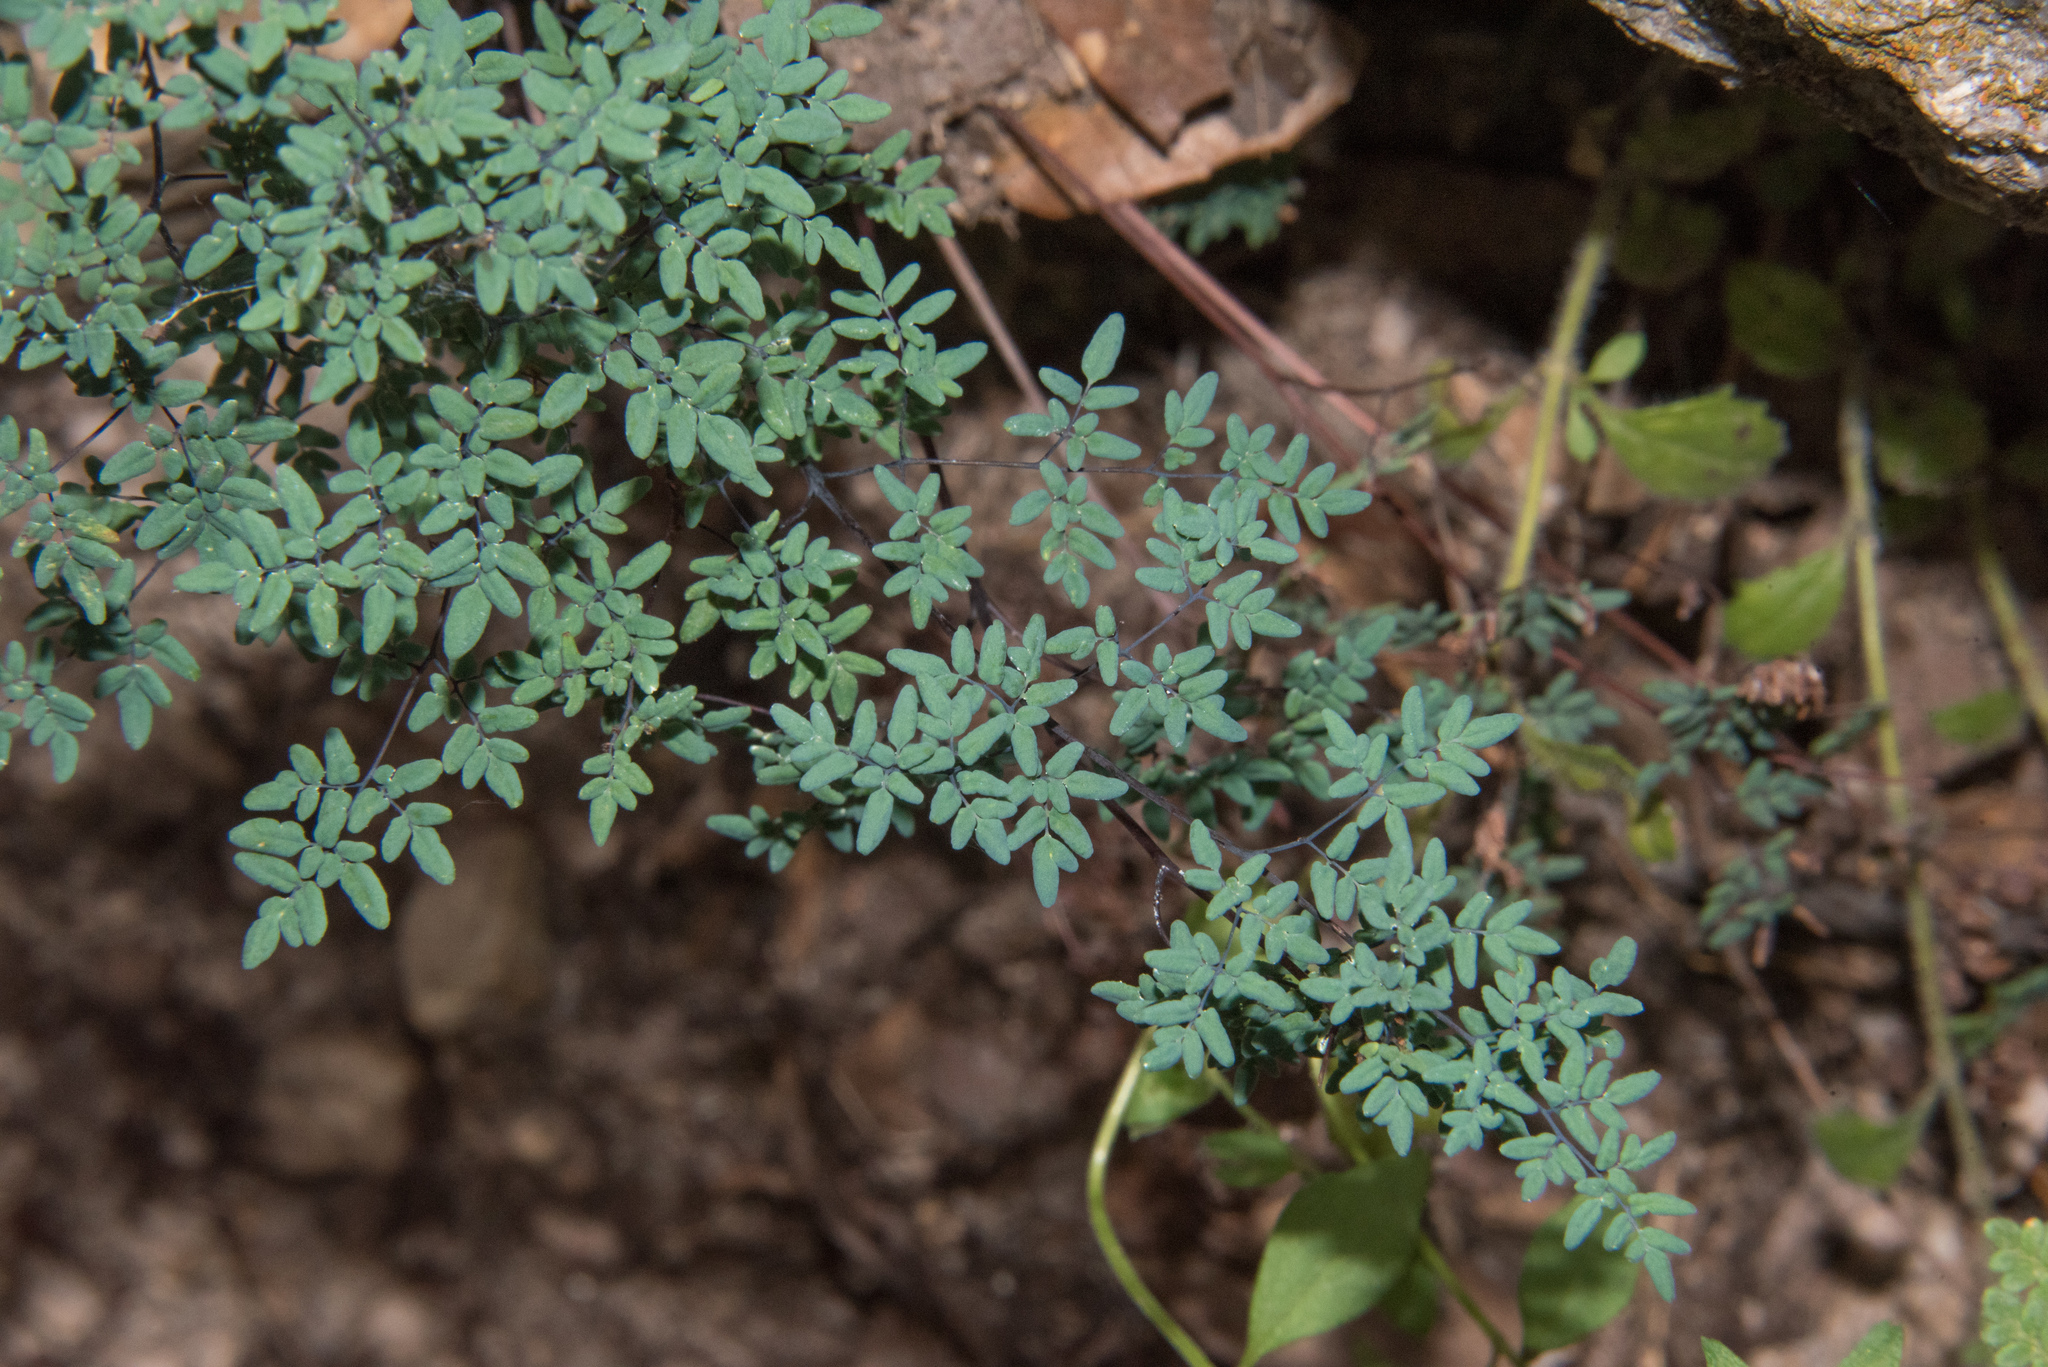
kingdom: Plantae
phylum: Tracheophyta
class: Polypodiopsida
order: Polypodiales
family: Pteridaceae
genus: Argyrochosma
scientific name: Argyrochosma limitanea
